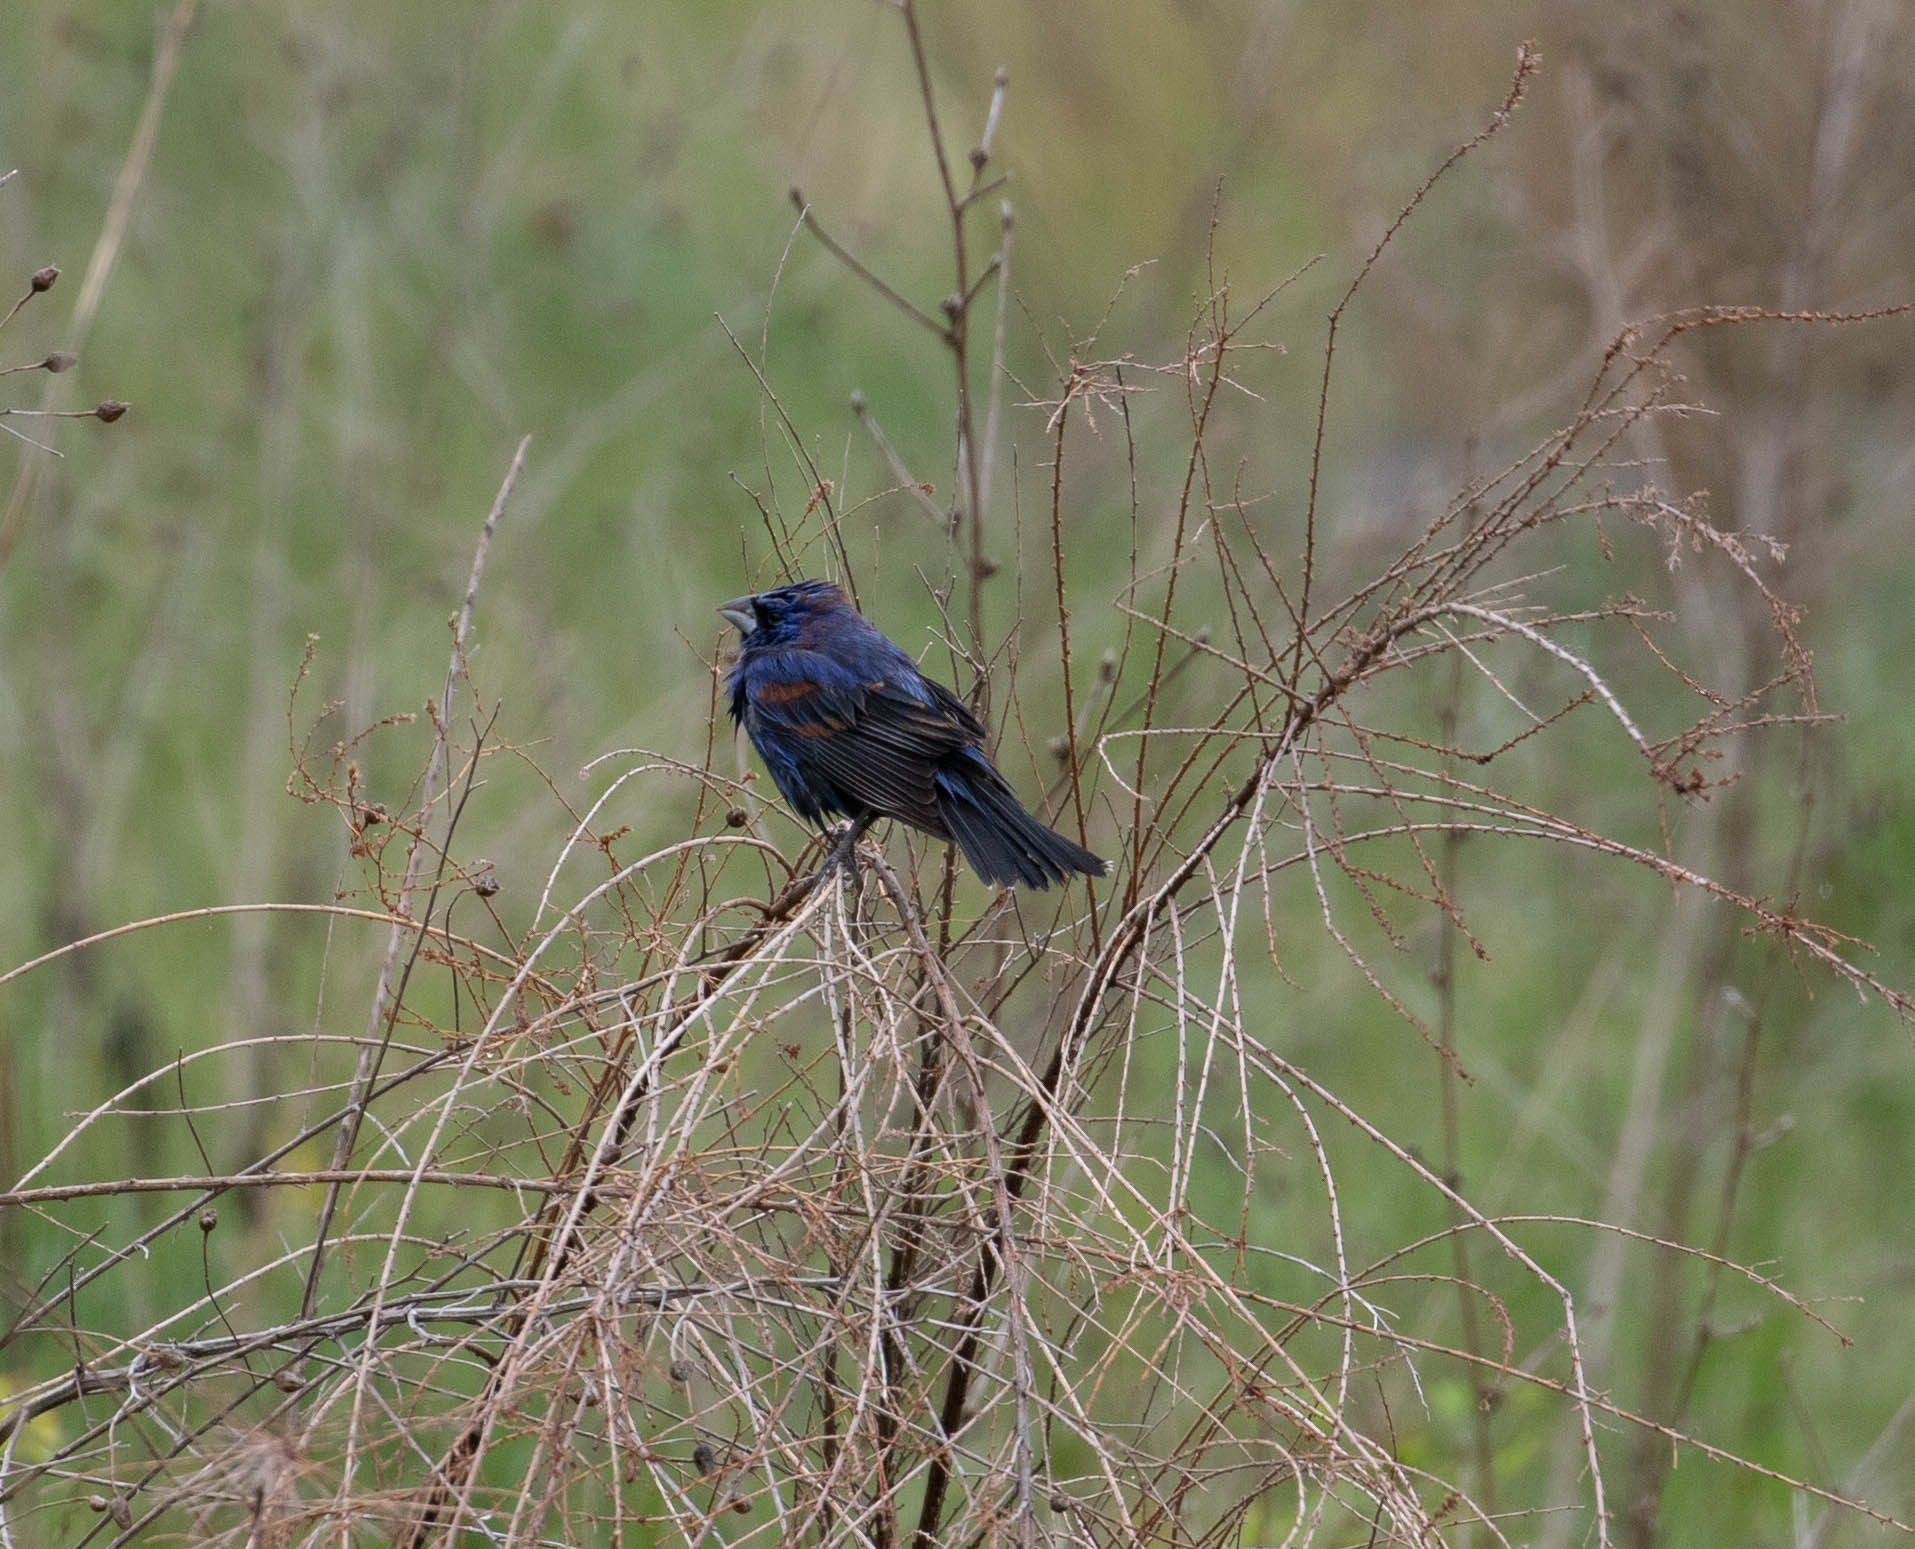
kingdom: Animalia
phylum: Chordata
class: Aves
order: Passeriformes
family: Cardinalidae
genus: Passerina
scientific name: Passerina caerulea
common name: Blue grosbeak
